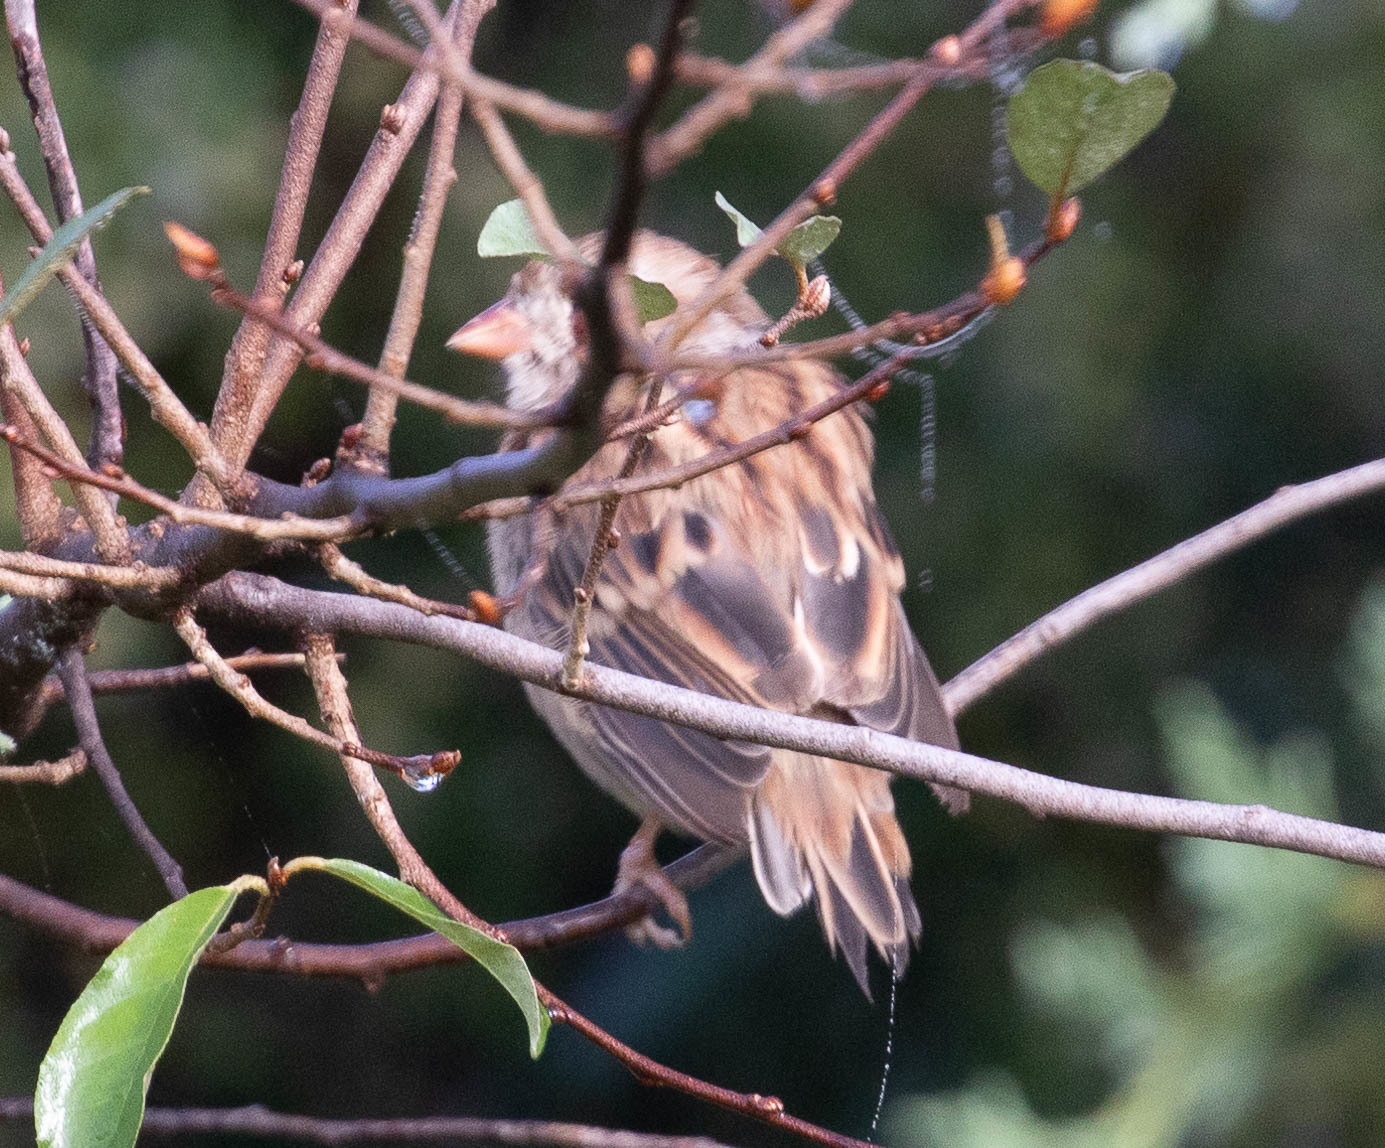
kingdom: Animalia
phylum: Chordata
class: Aves
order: Passeriformes
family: Passerellidae
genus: Spizella
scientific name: Spizella pusilla
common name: Field sparrow
